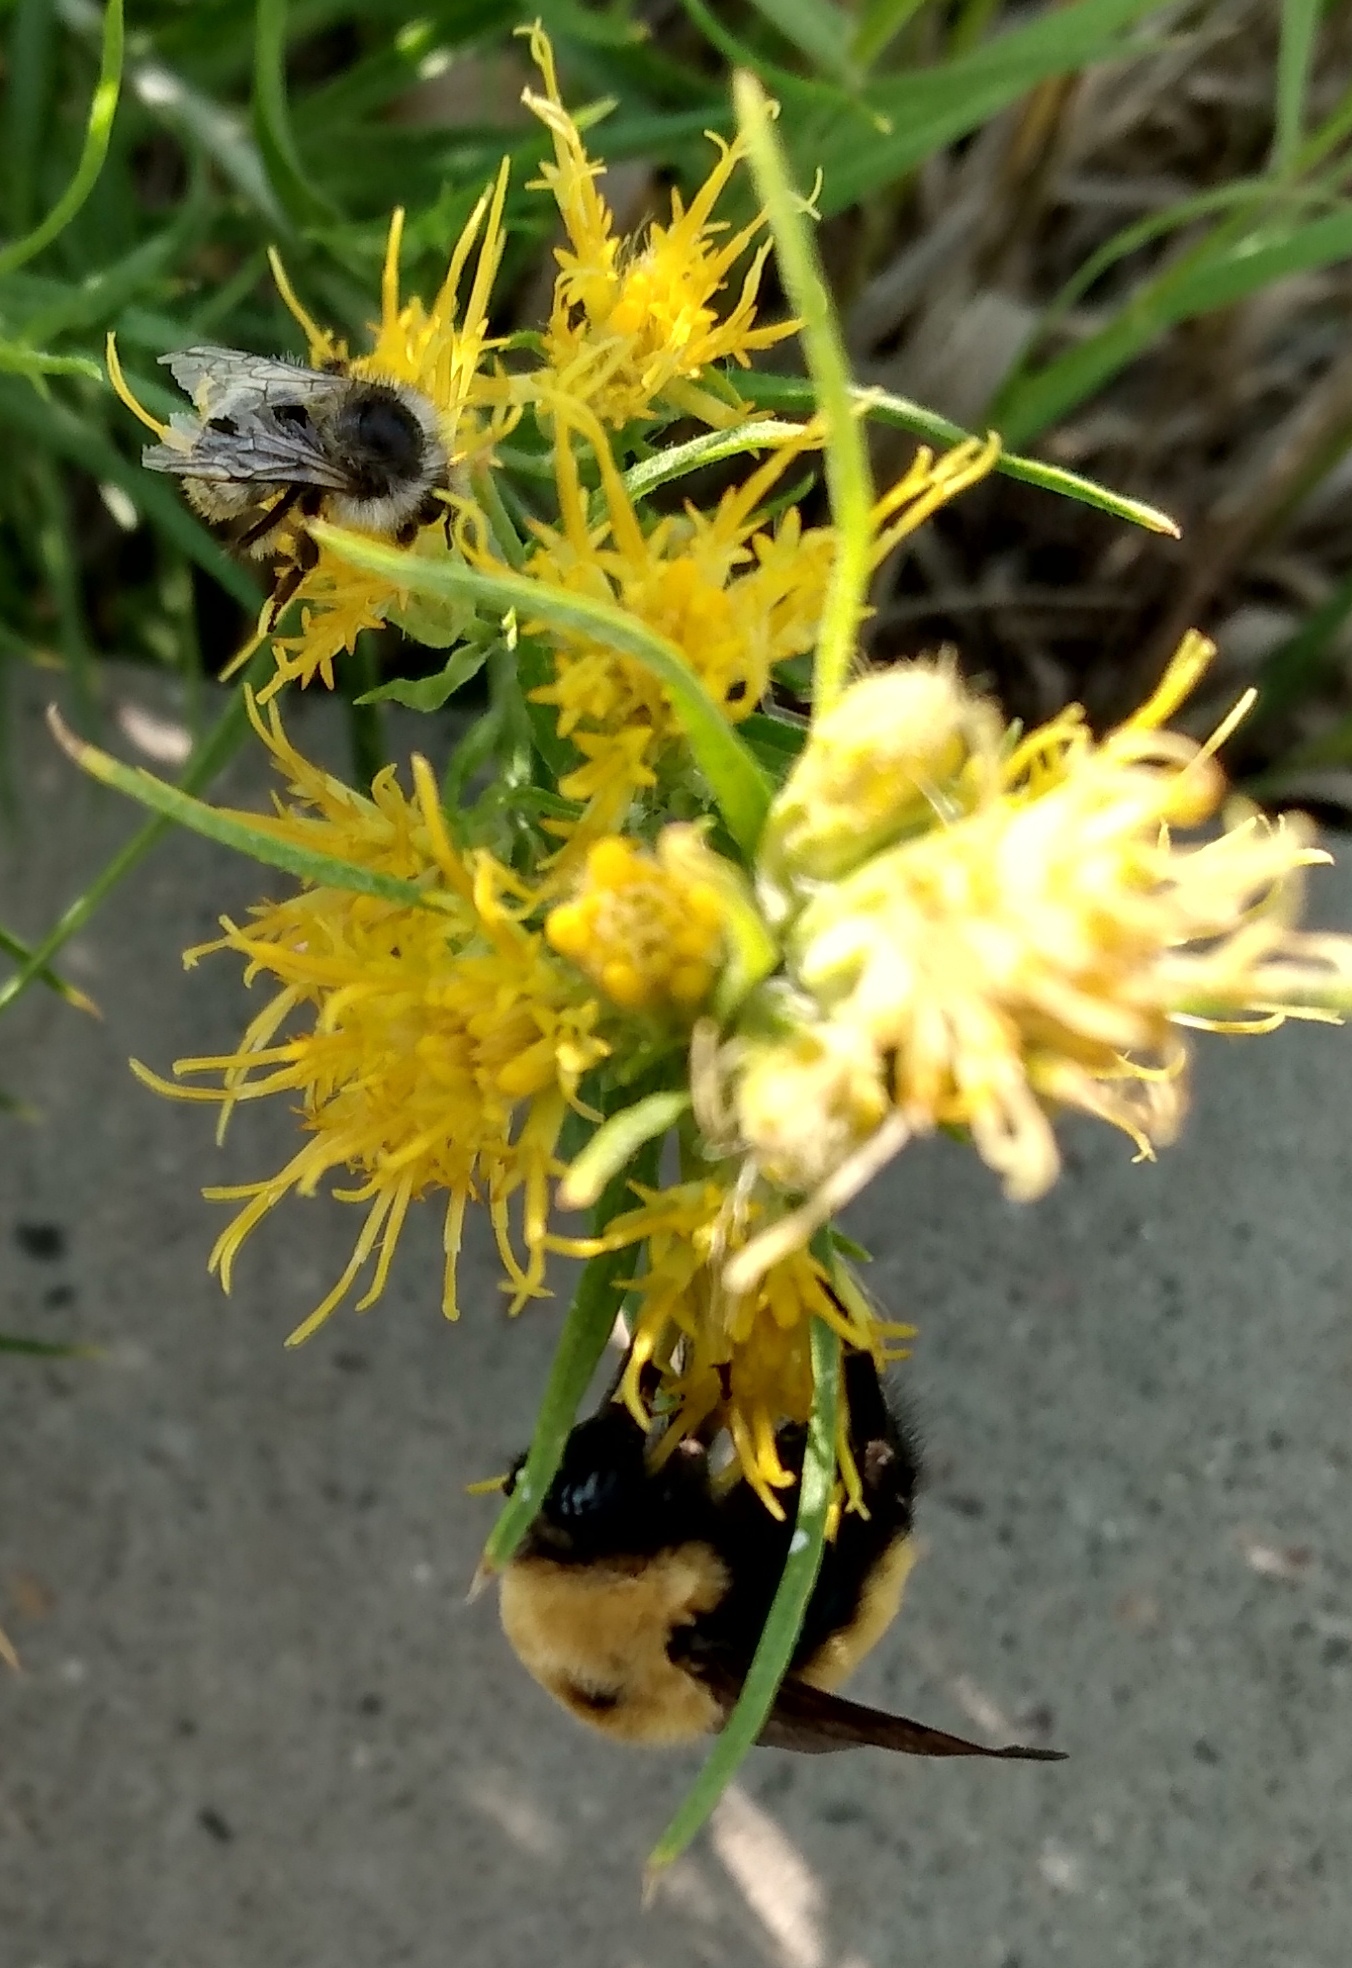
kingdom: Animalia
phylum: Arthropoda
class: Insecta
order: Hymenoptera
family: Apidae
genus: Bombus
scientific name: Bombus nevadensis
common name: Nevada bumble bee
